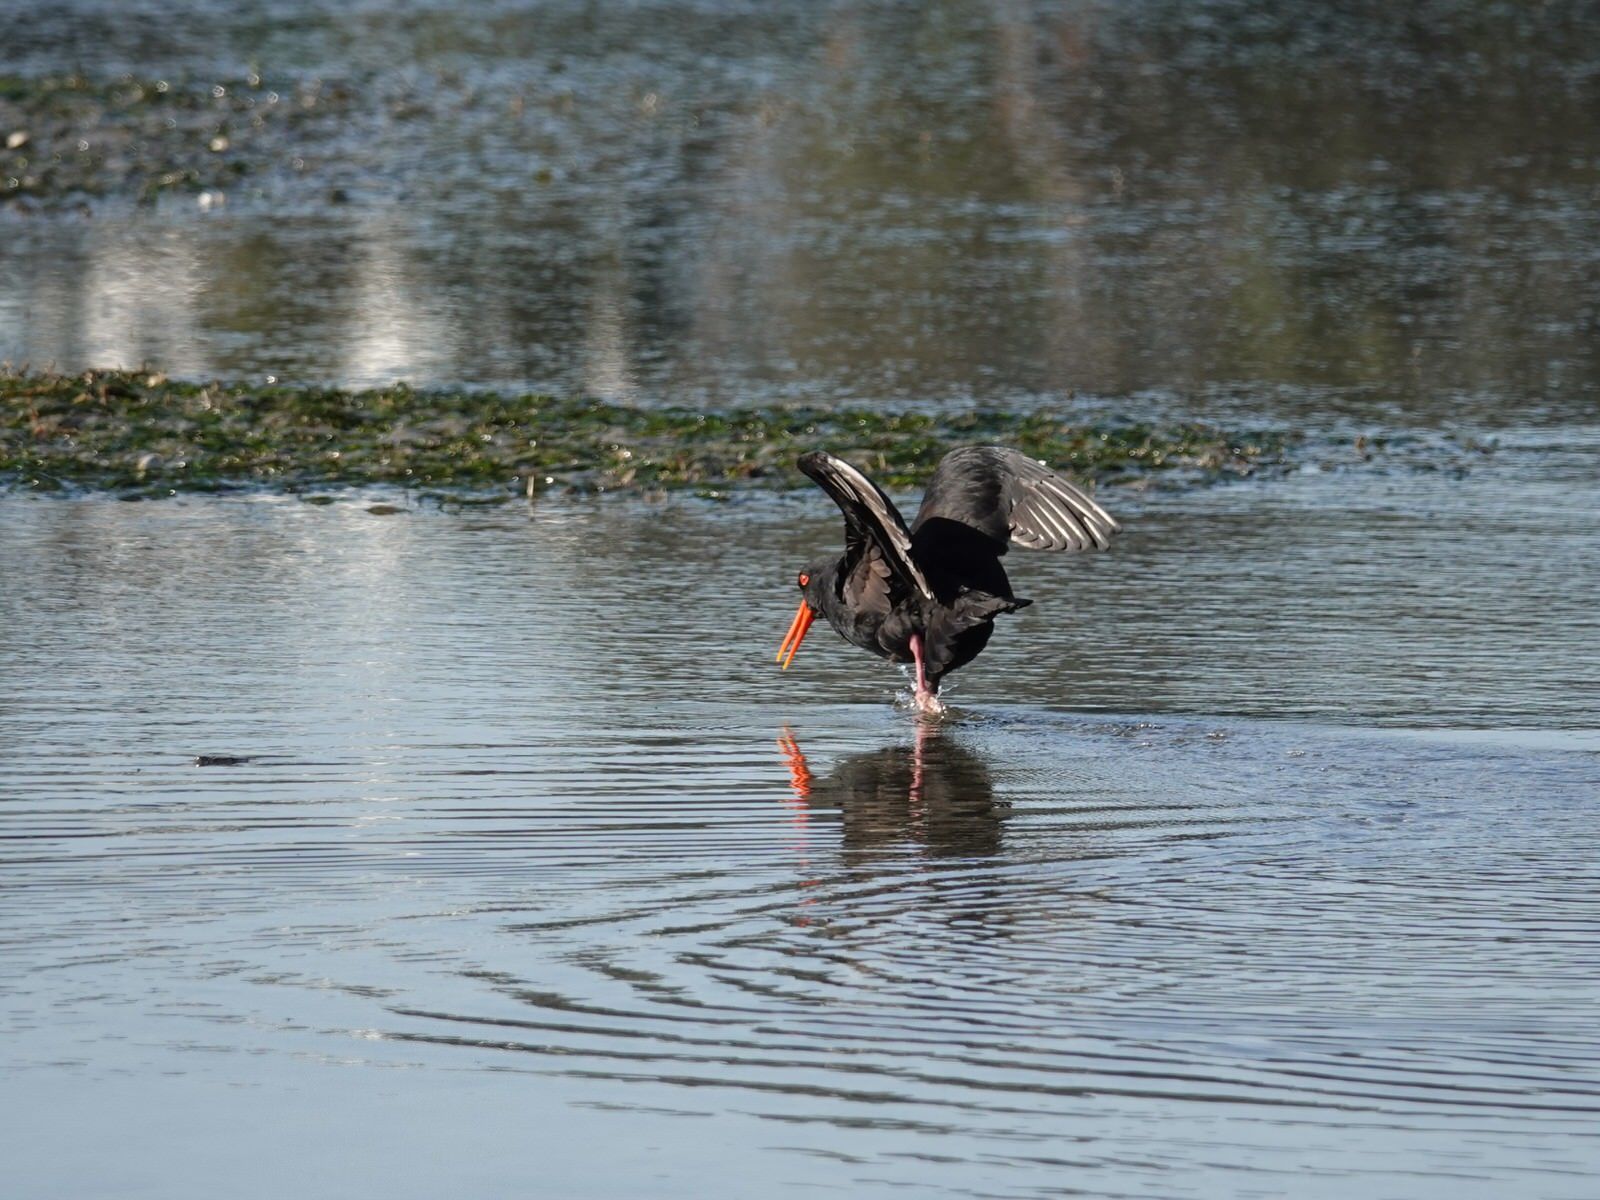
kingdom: Animalia
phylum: Chordata
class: Aves
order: Charadriiformes
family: Haematopodidae
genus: Haematopus
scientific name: Haematopus unicolor
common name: Variable oystercatcher
